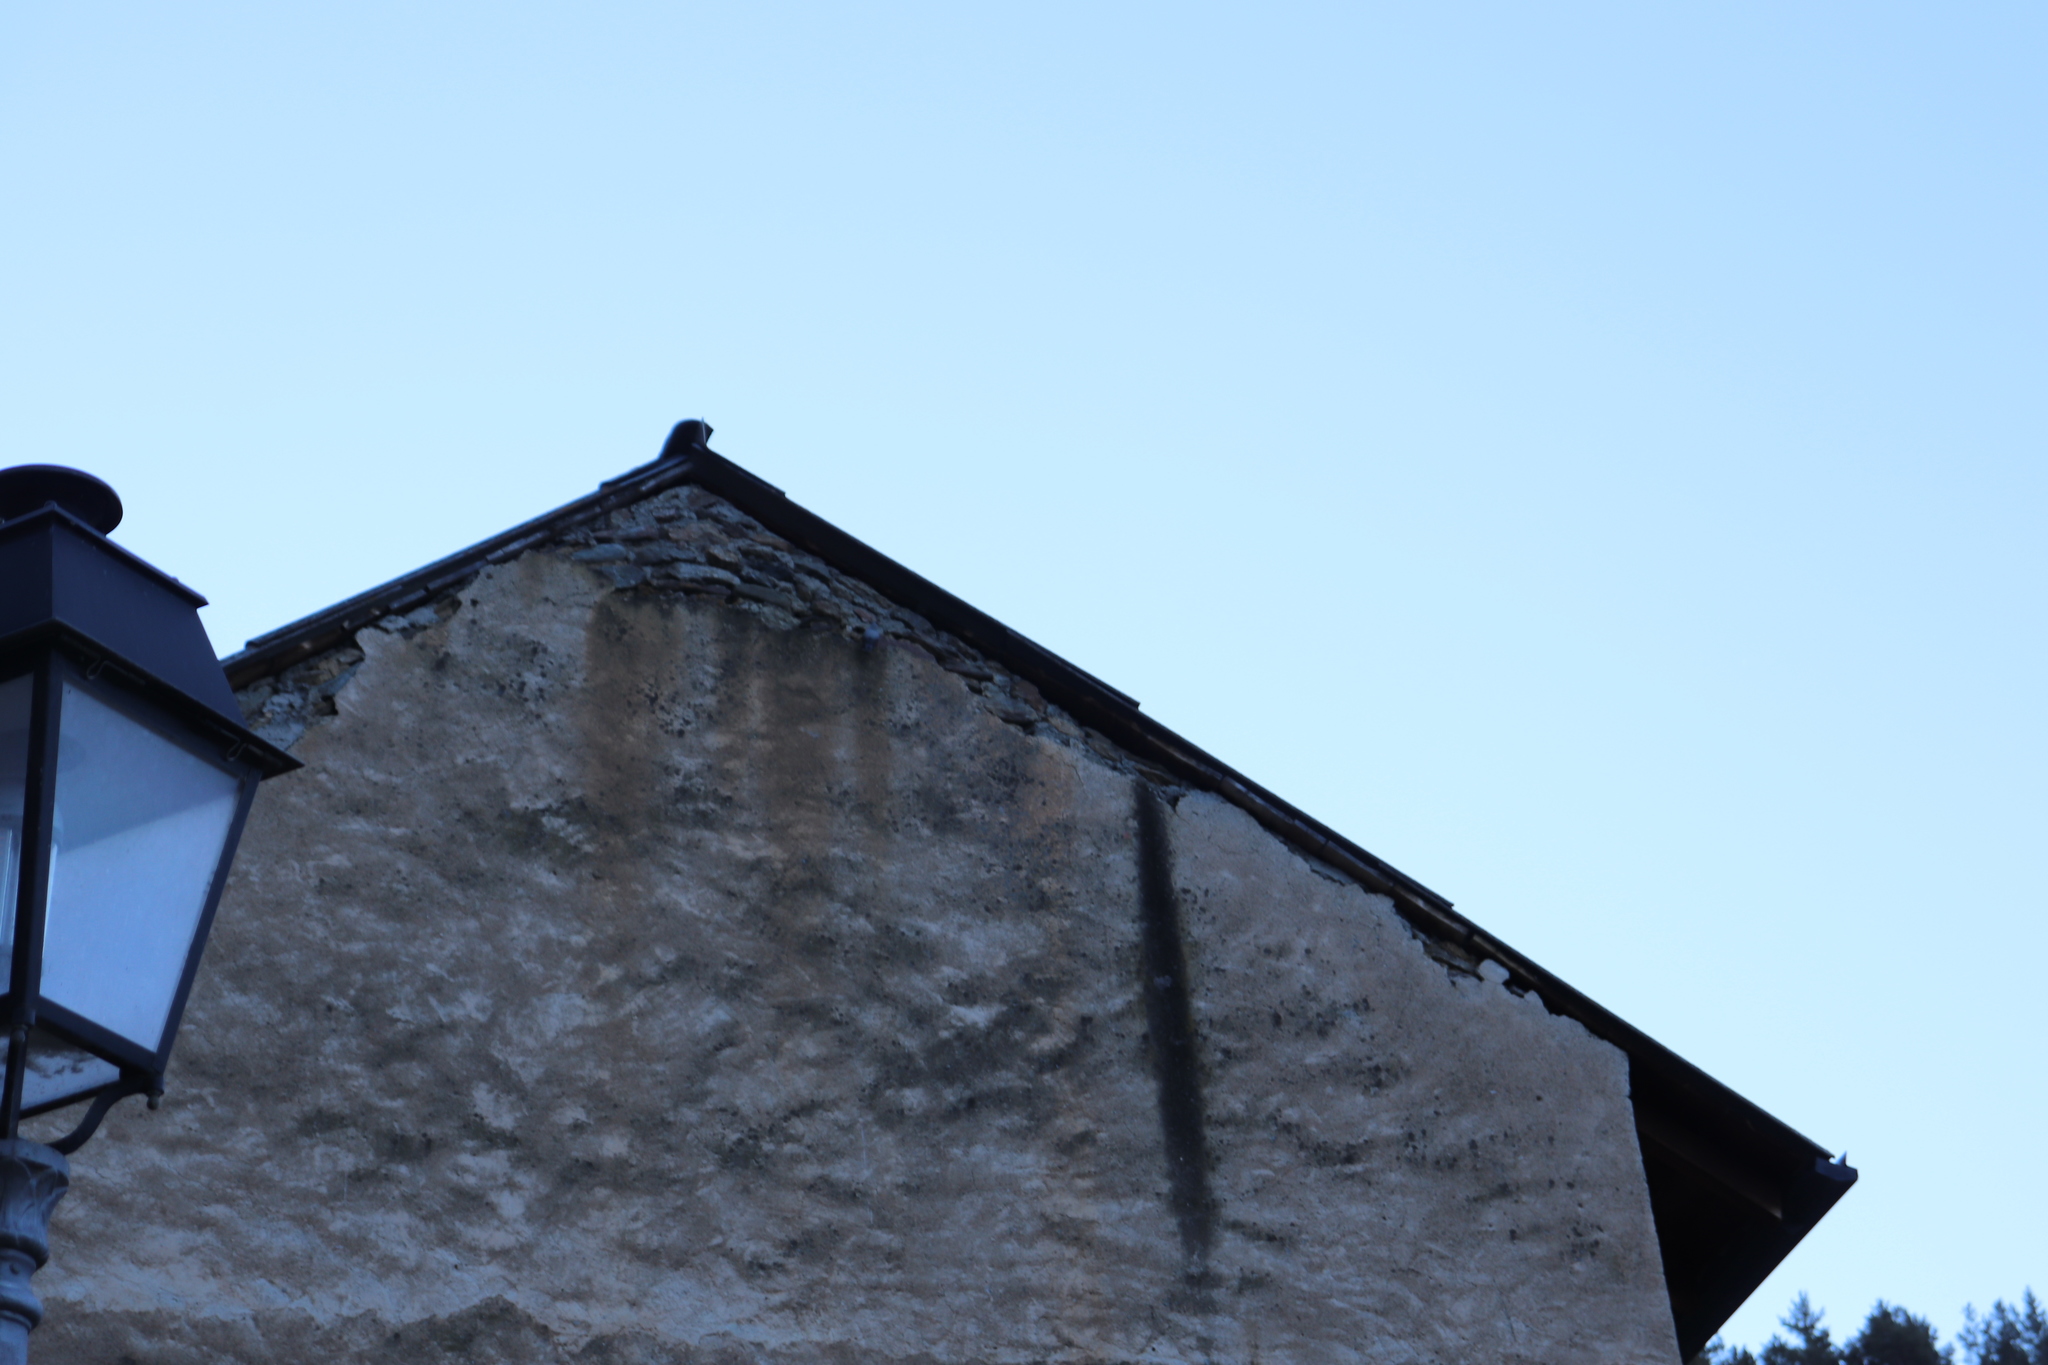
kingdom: Animalia
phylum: Chordata
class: Aves
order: Passeriformes
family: Tichodromidae
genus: Tichodroma
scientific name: Tichodroma muraria
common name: Wallcreeper
